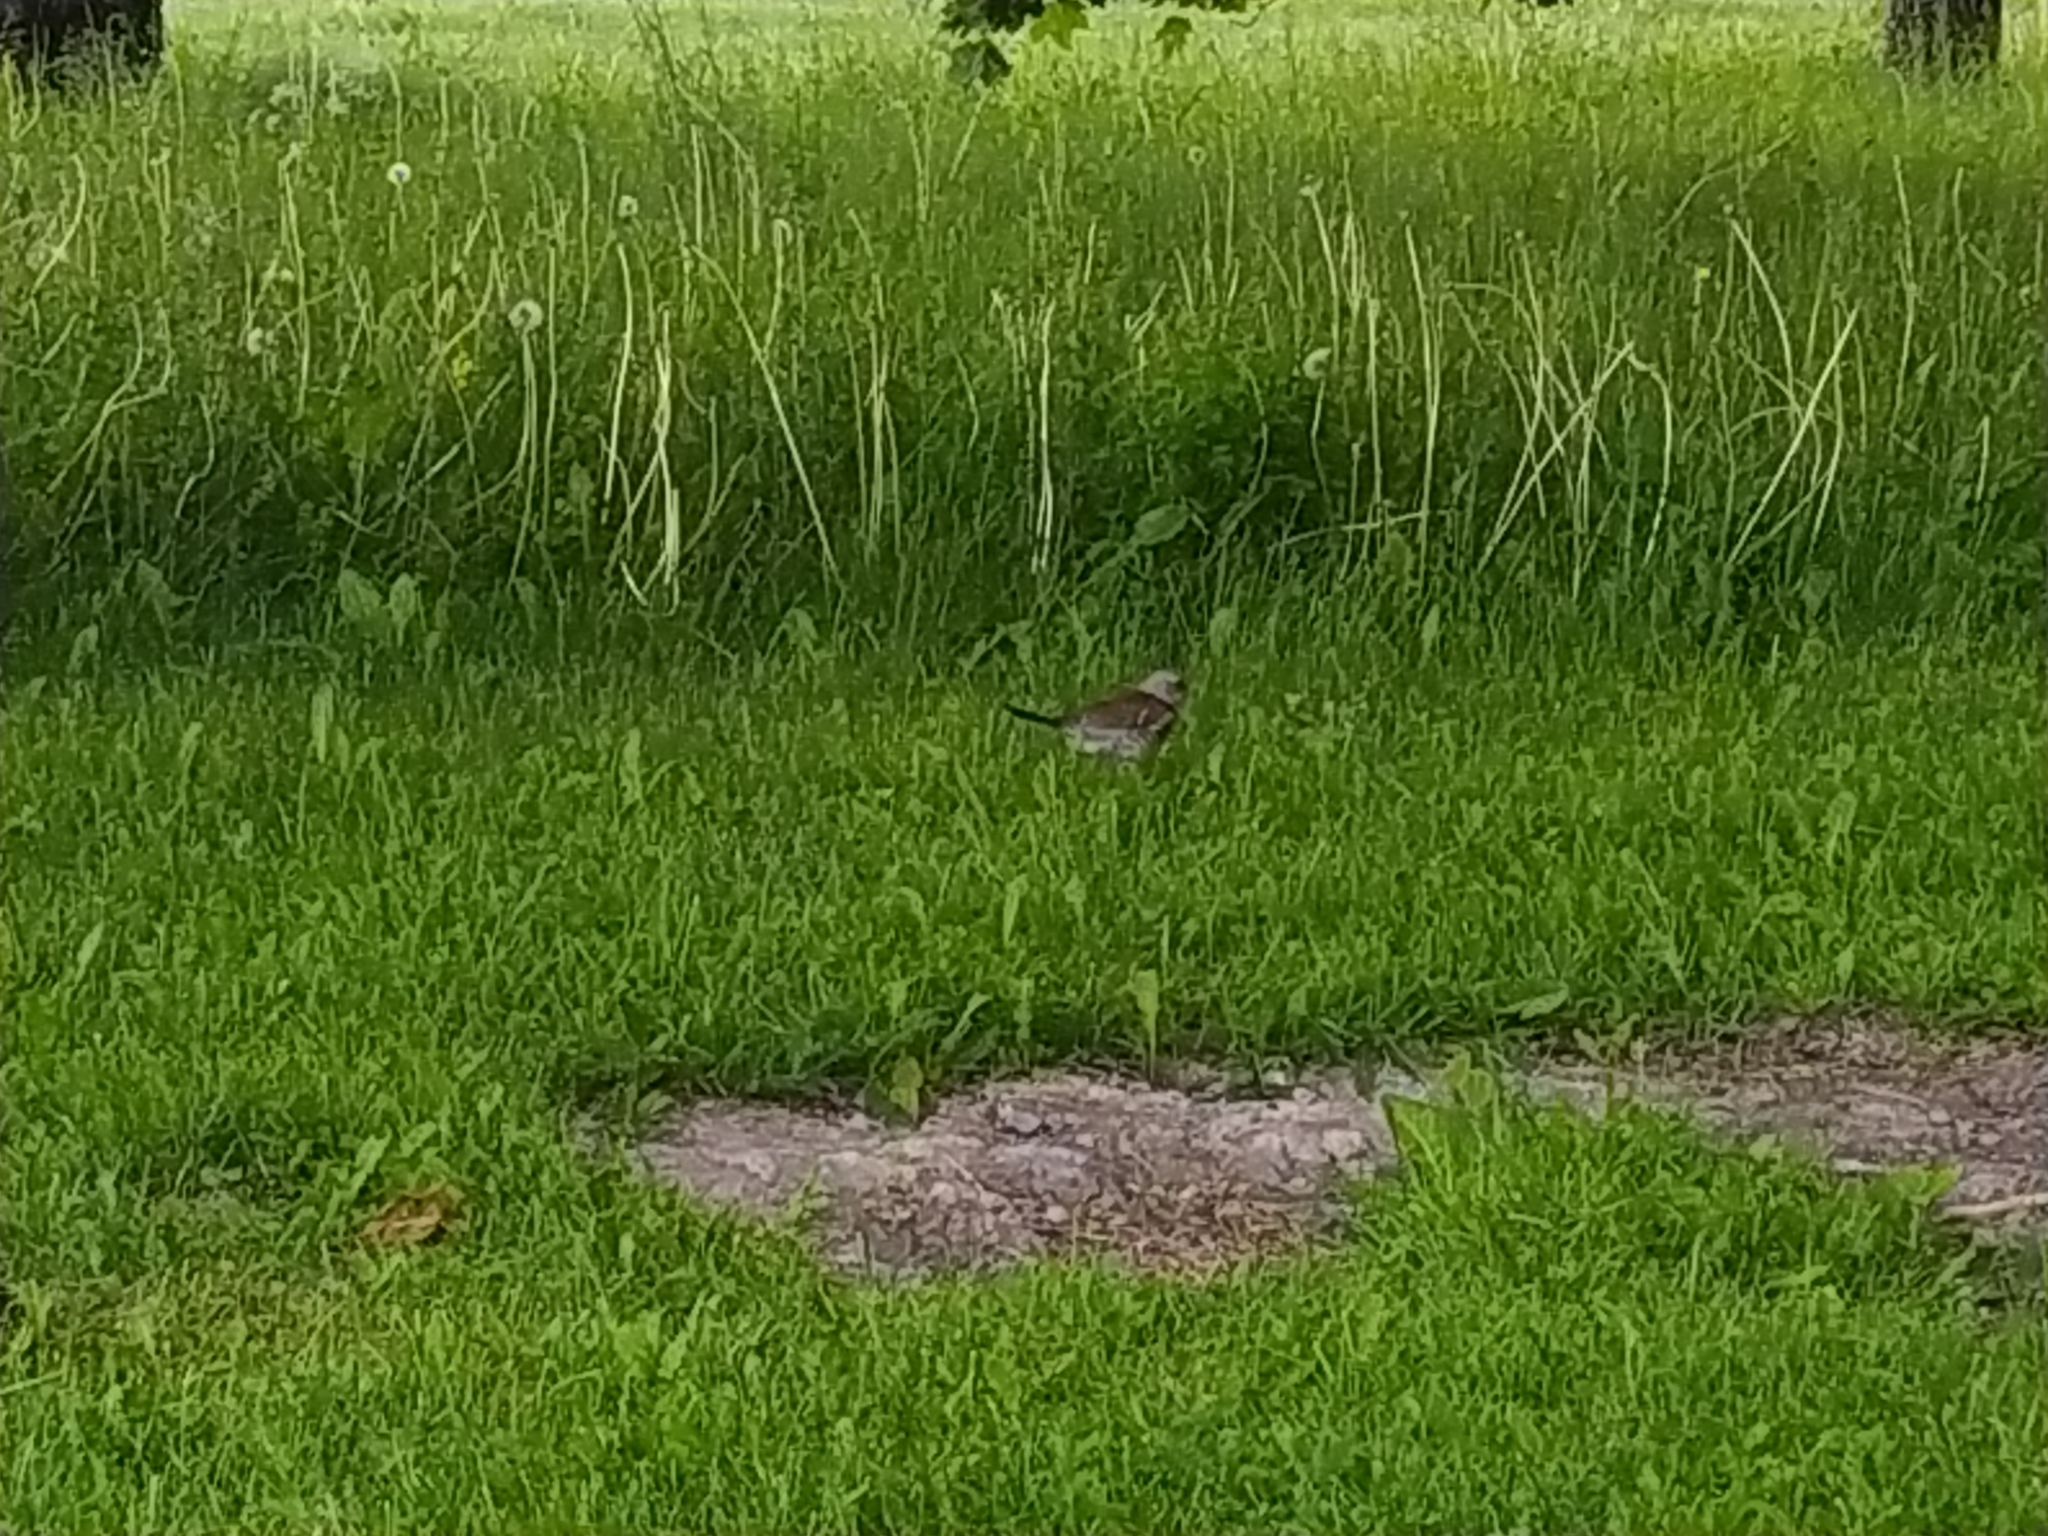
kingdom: Animalia
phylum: Chordata
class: Aves
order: Passeriformes
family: Turdidae
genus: Turdus
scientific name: Turdus pilaris
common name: Fieldfare
